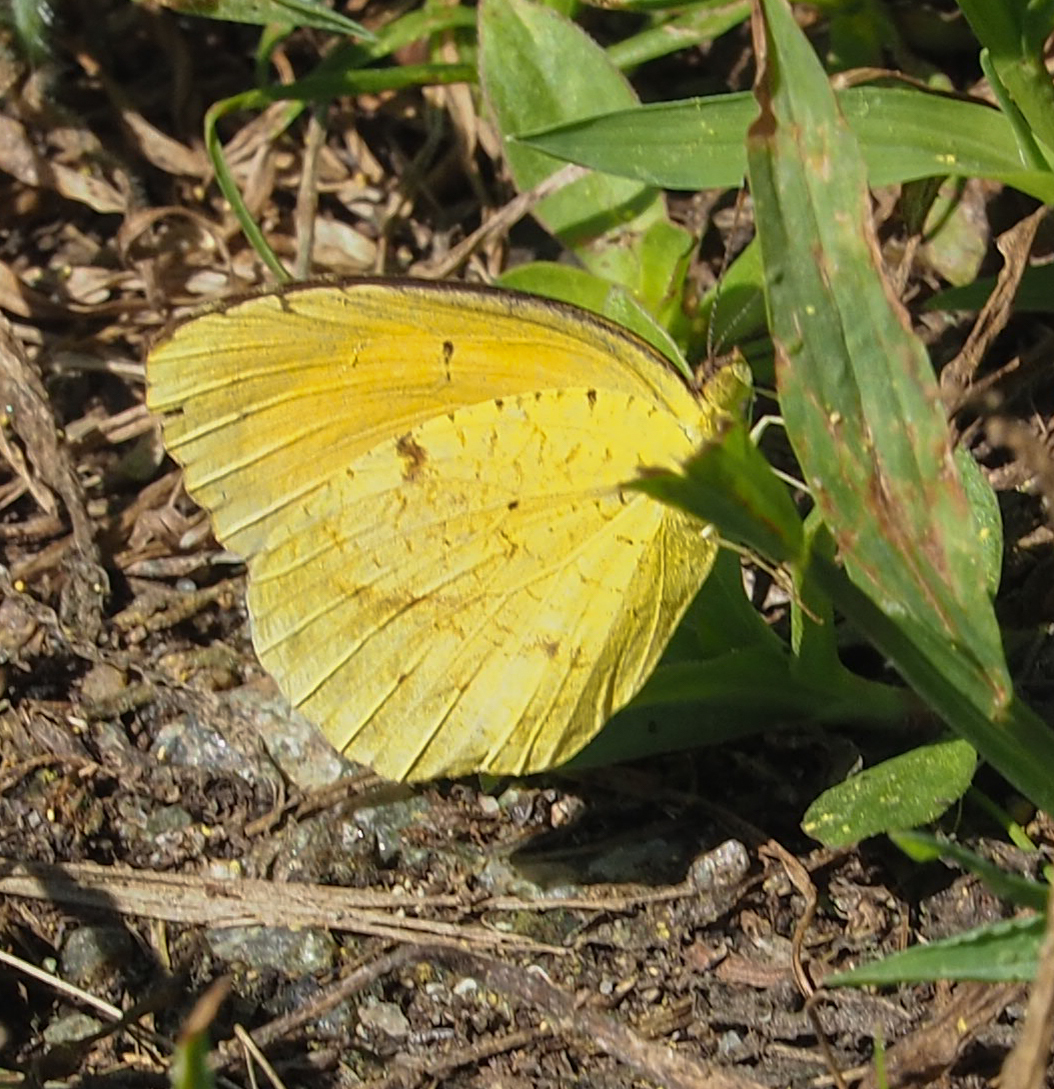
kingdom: Animalia
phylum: Arthropoda
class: Insecta
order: Lepidoptera
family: Pieridae
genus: Abaeis
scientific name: Abaeis nicippe
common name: Sleepy orange
